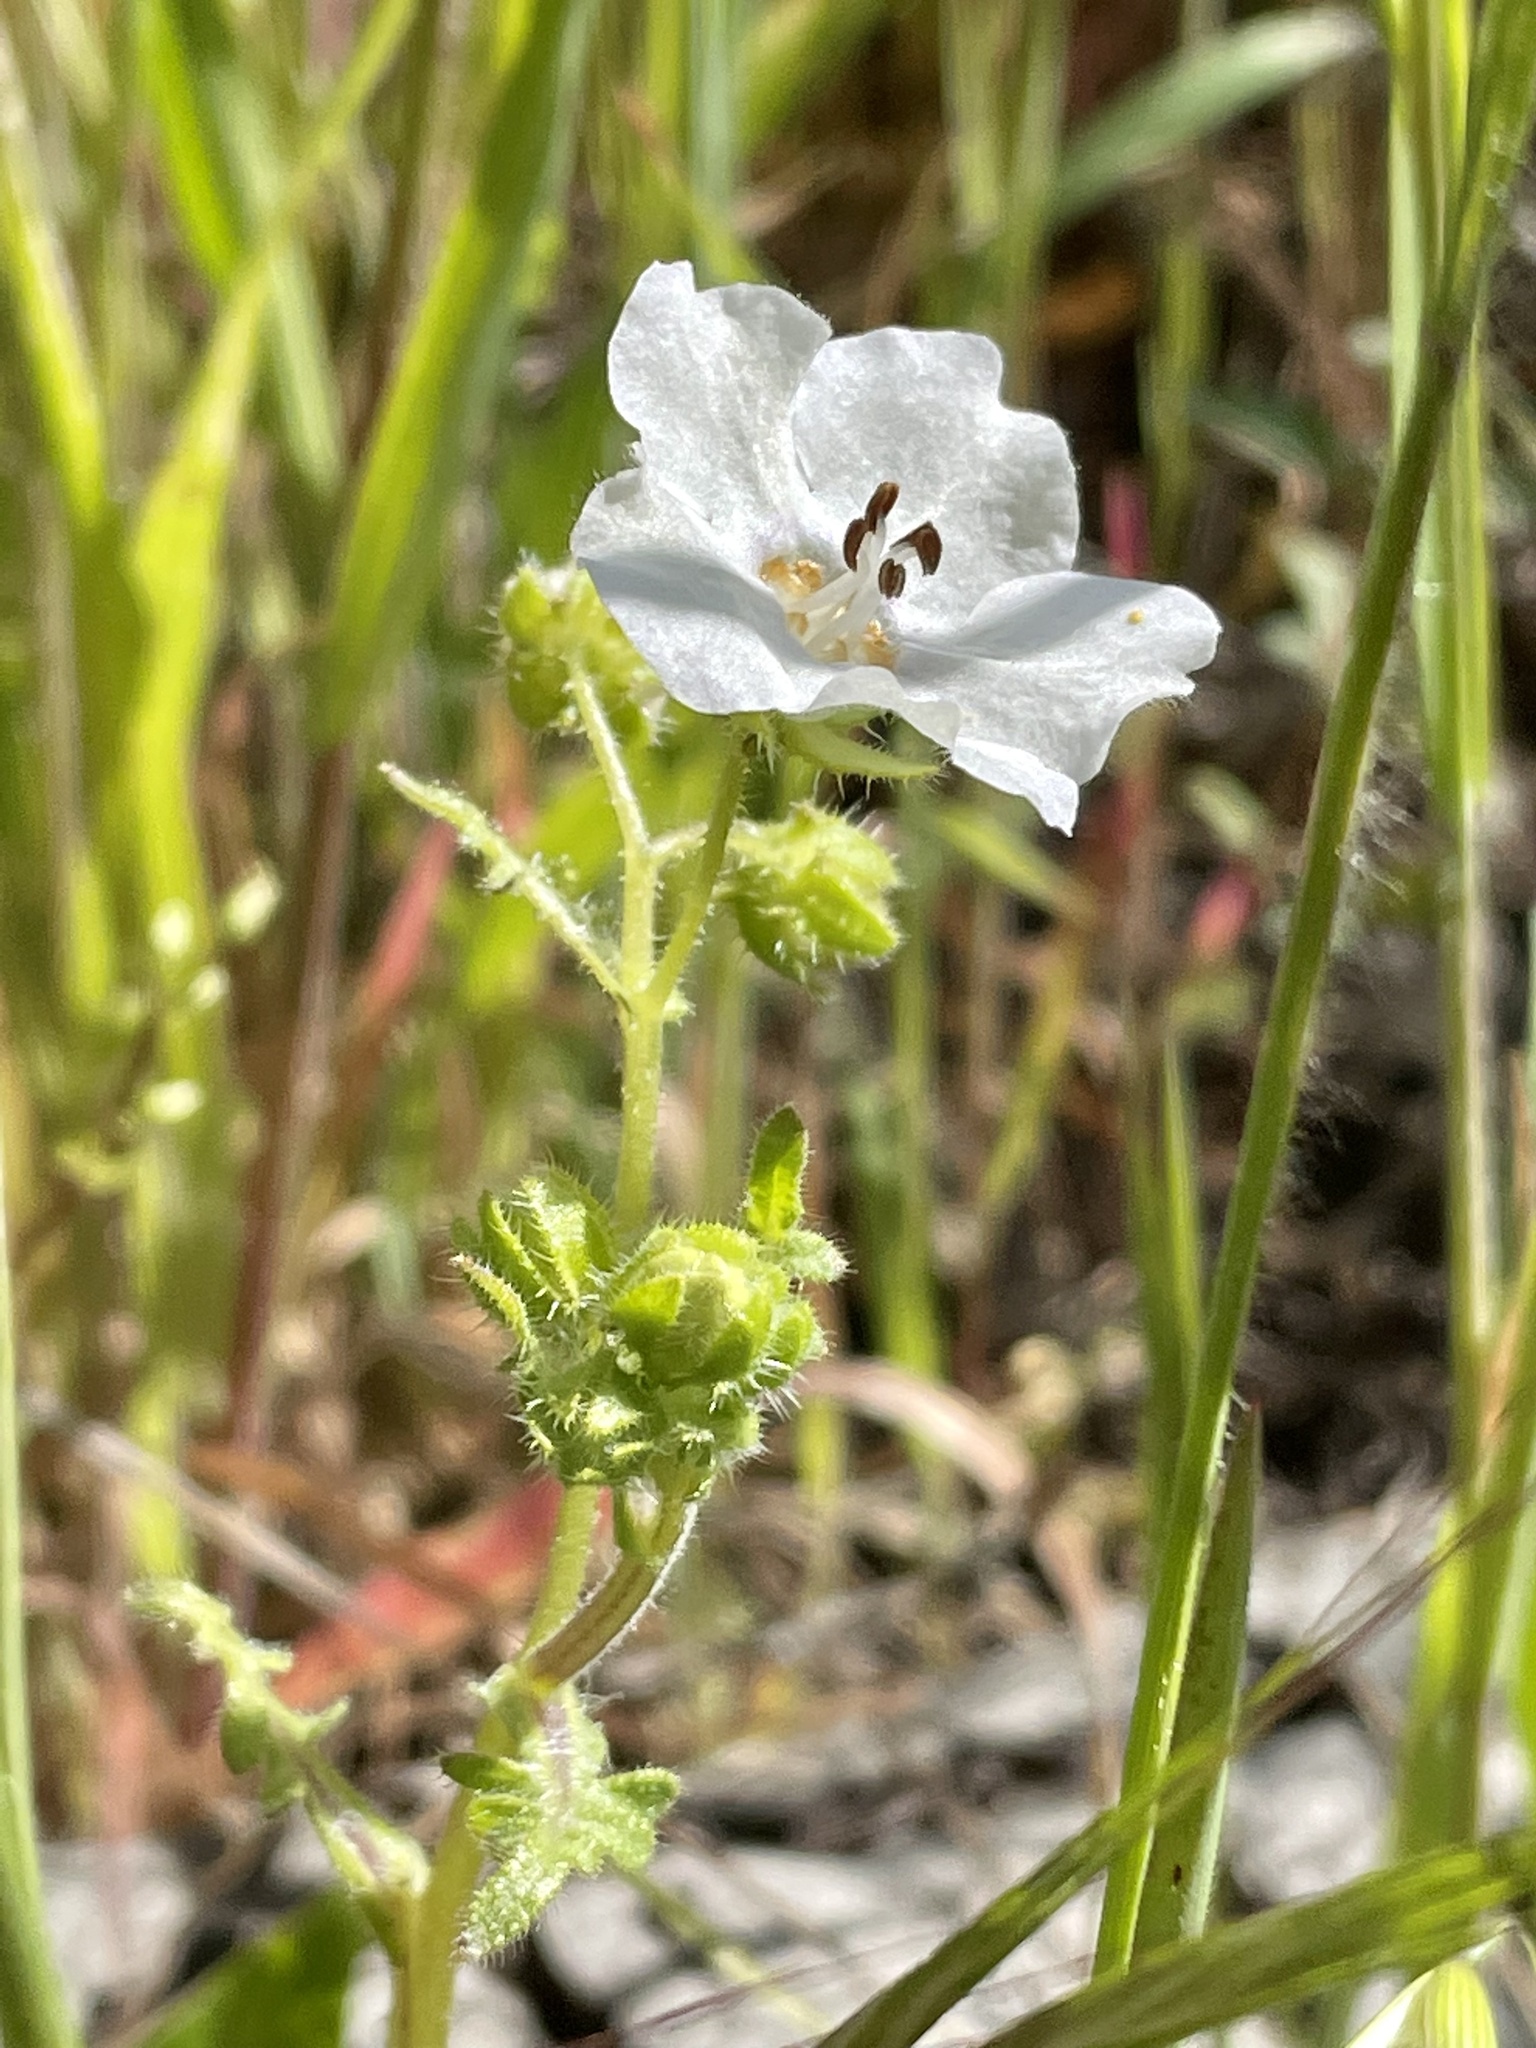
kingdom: Plantae
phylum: Tracheophyta
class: Magnoliopsida
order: Boraginales
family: Hydrophyllaceae
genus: Pholistoma
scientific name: Pholistoma auritum
